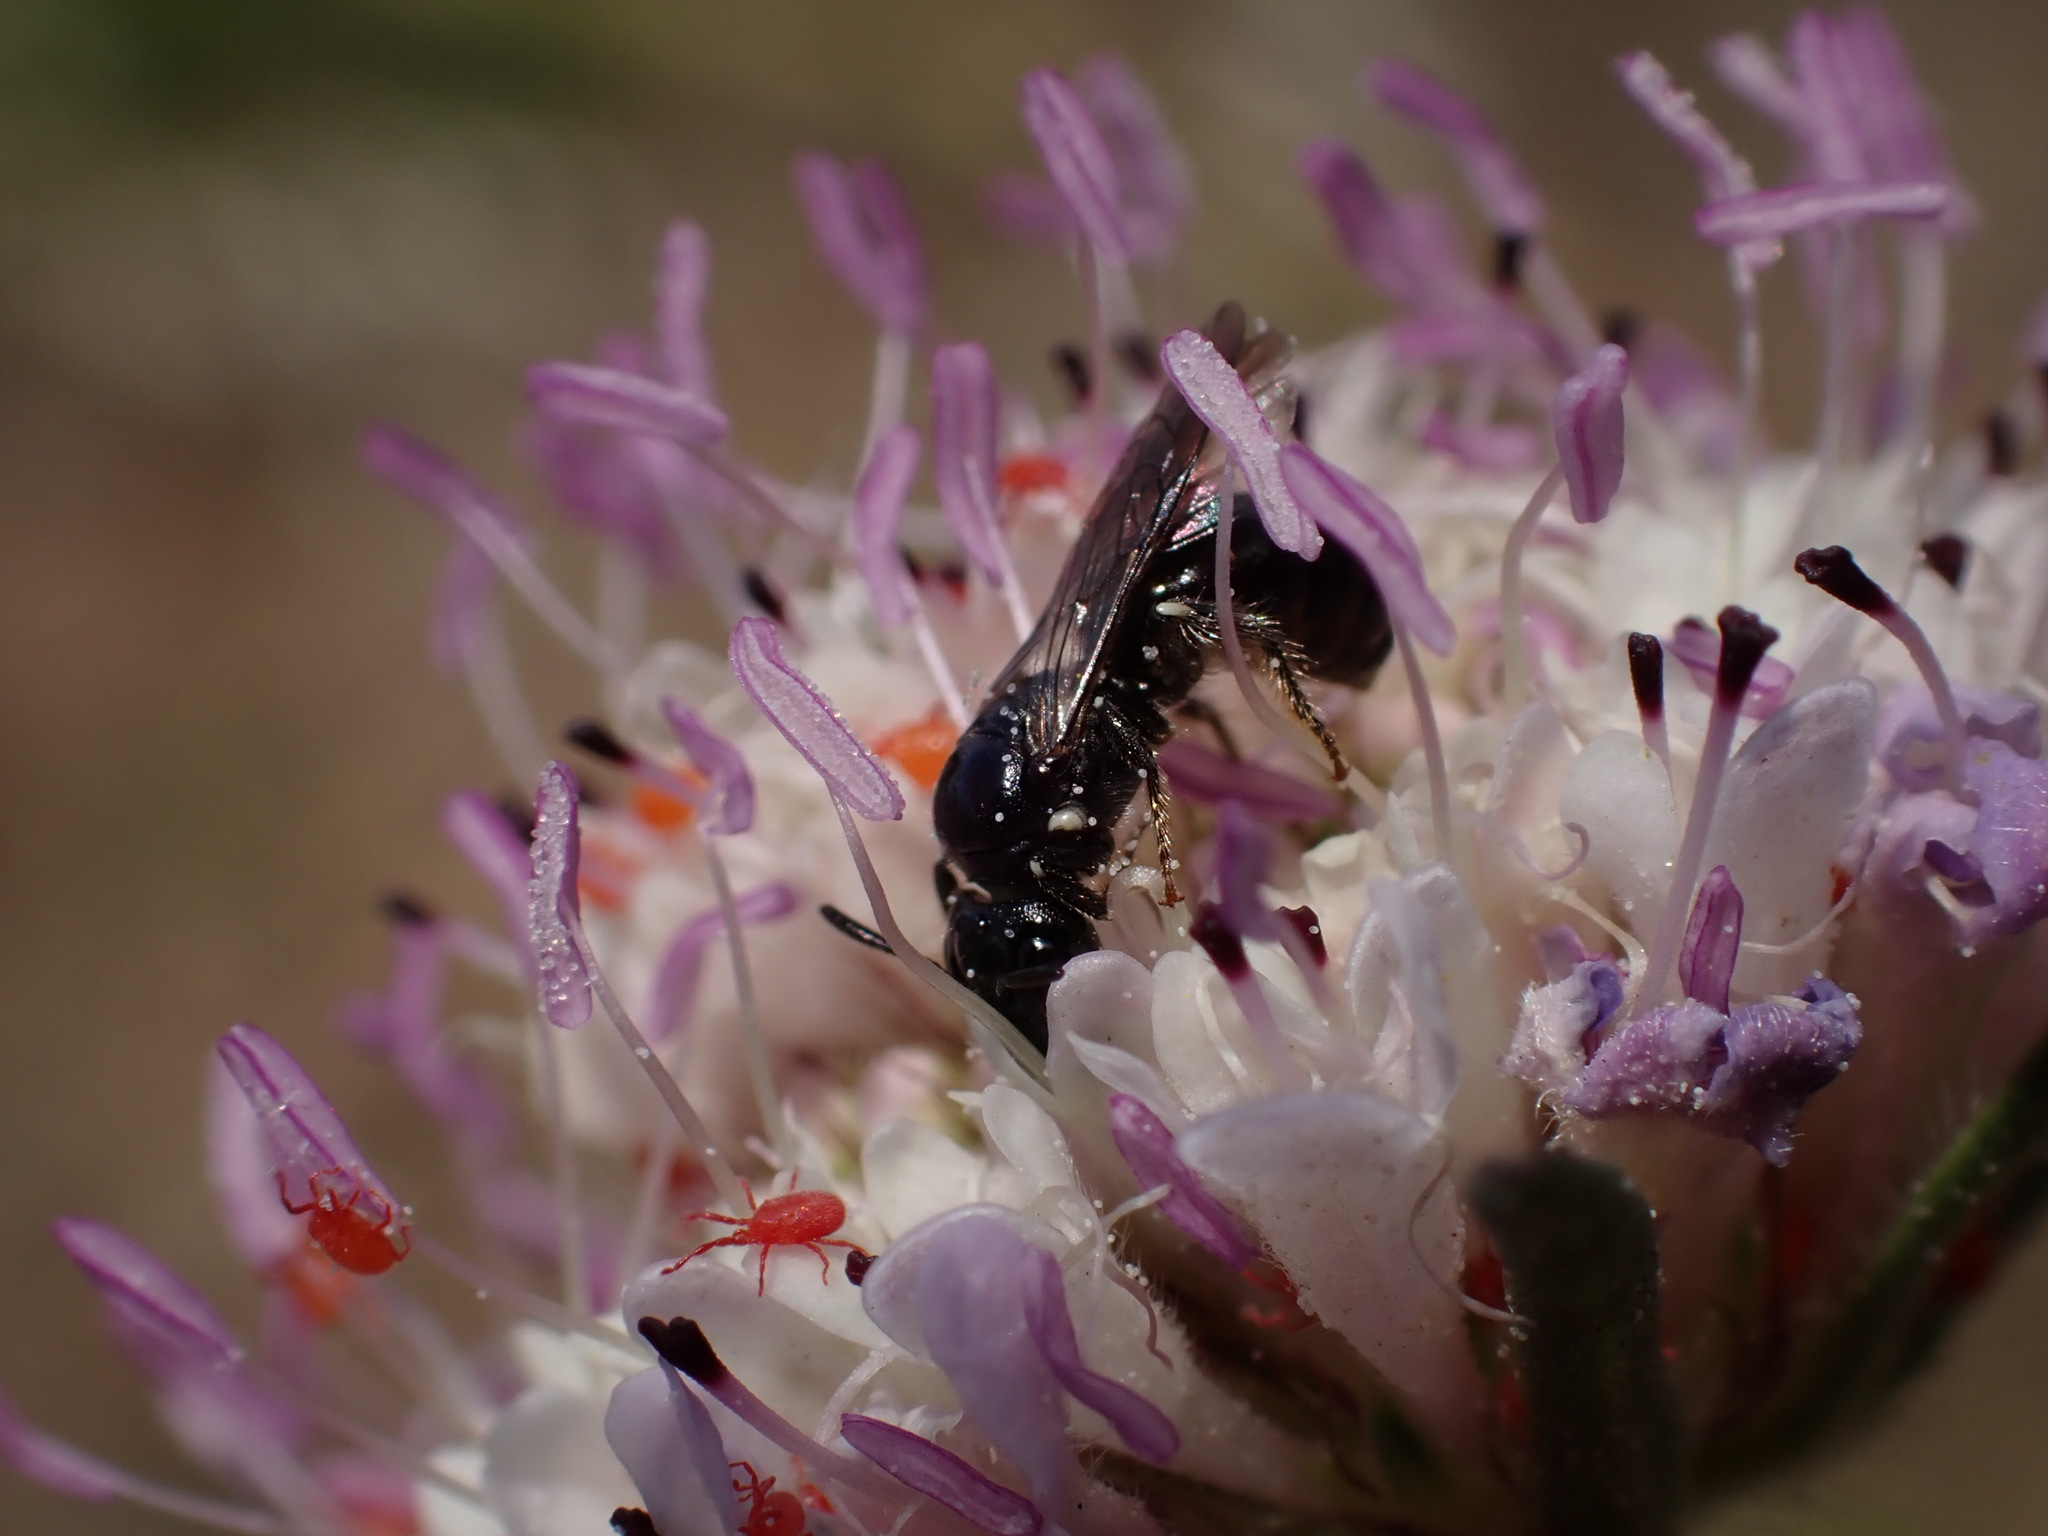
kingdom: Animalia
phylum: Arthropoda
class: Insecta
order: Hymenoptera
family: Apidae
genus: Ceratina
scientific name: Ceratina cucurbitina
